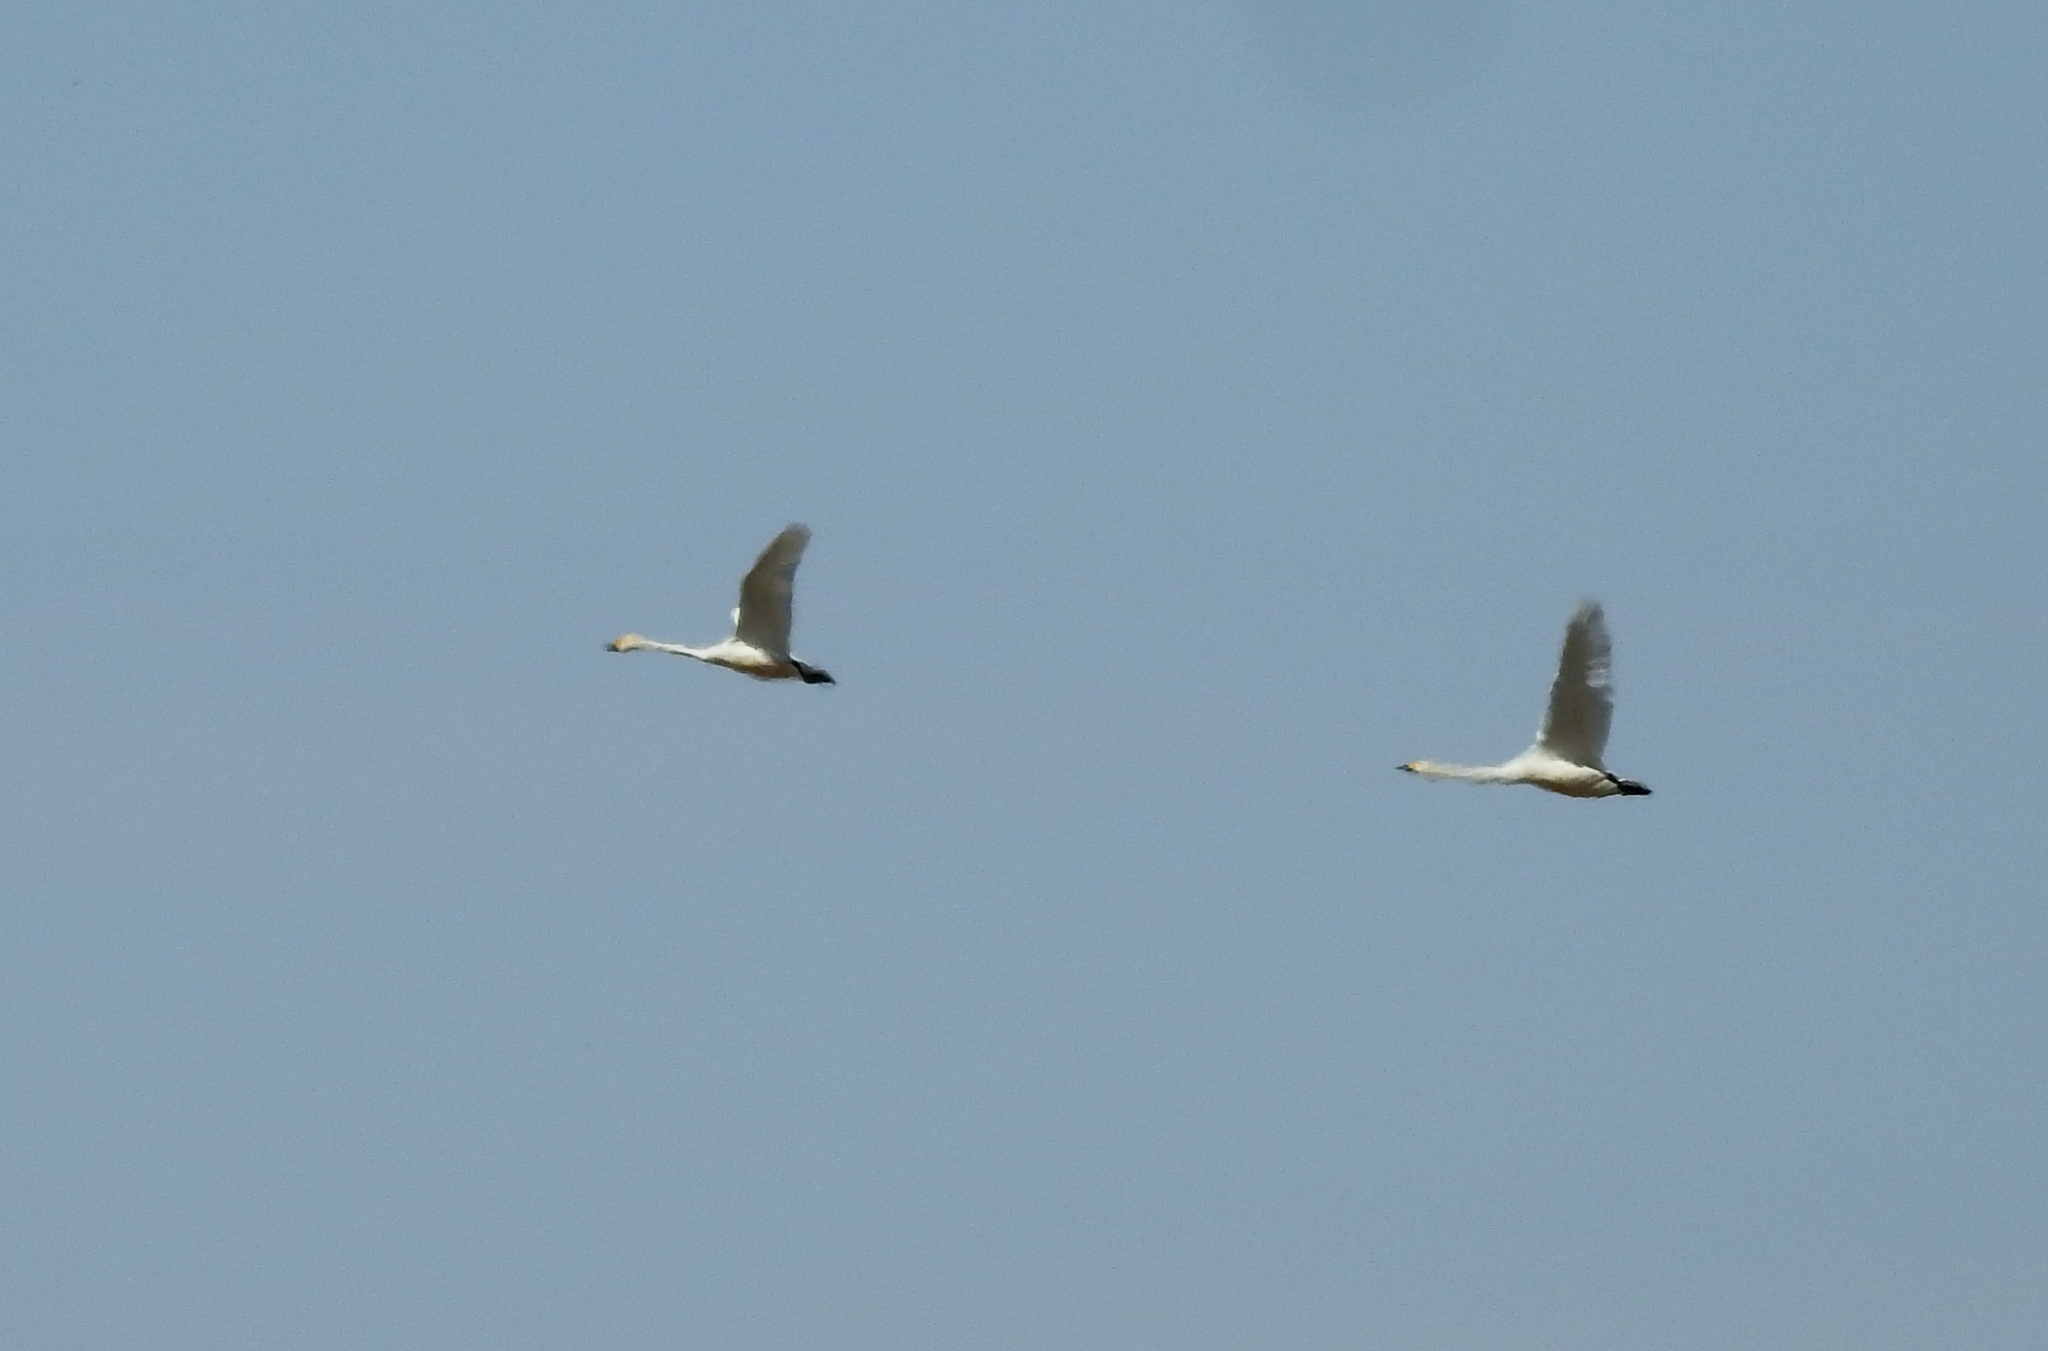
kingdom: Animalia
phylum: Chordata
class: Aves
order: Anseriformes
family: Anatidae
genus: Cygnus
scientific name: Cygnus cygnus
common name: Whooper swan
